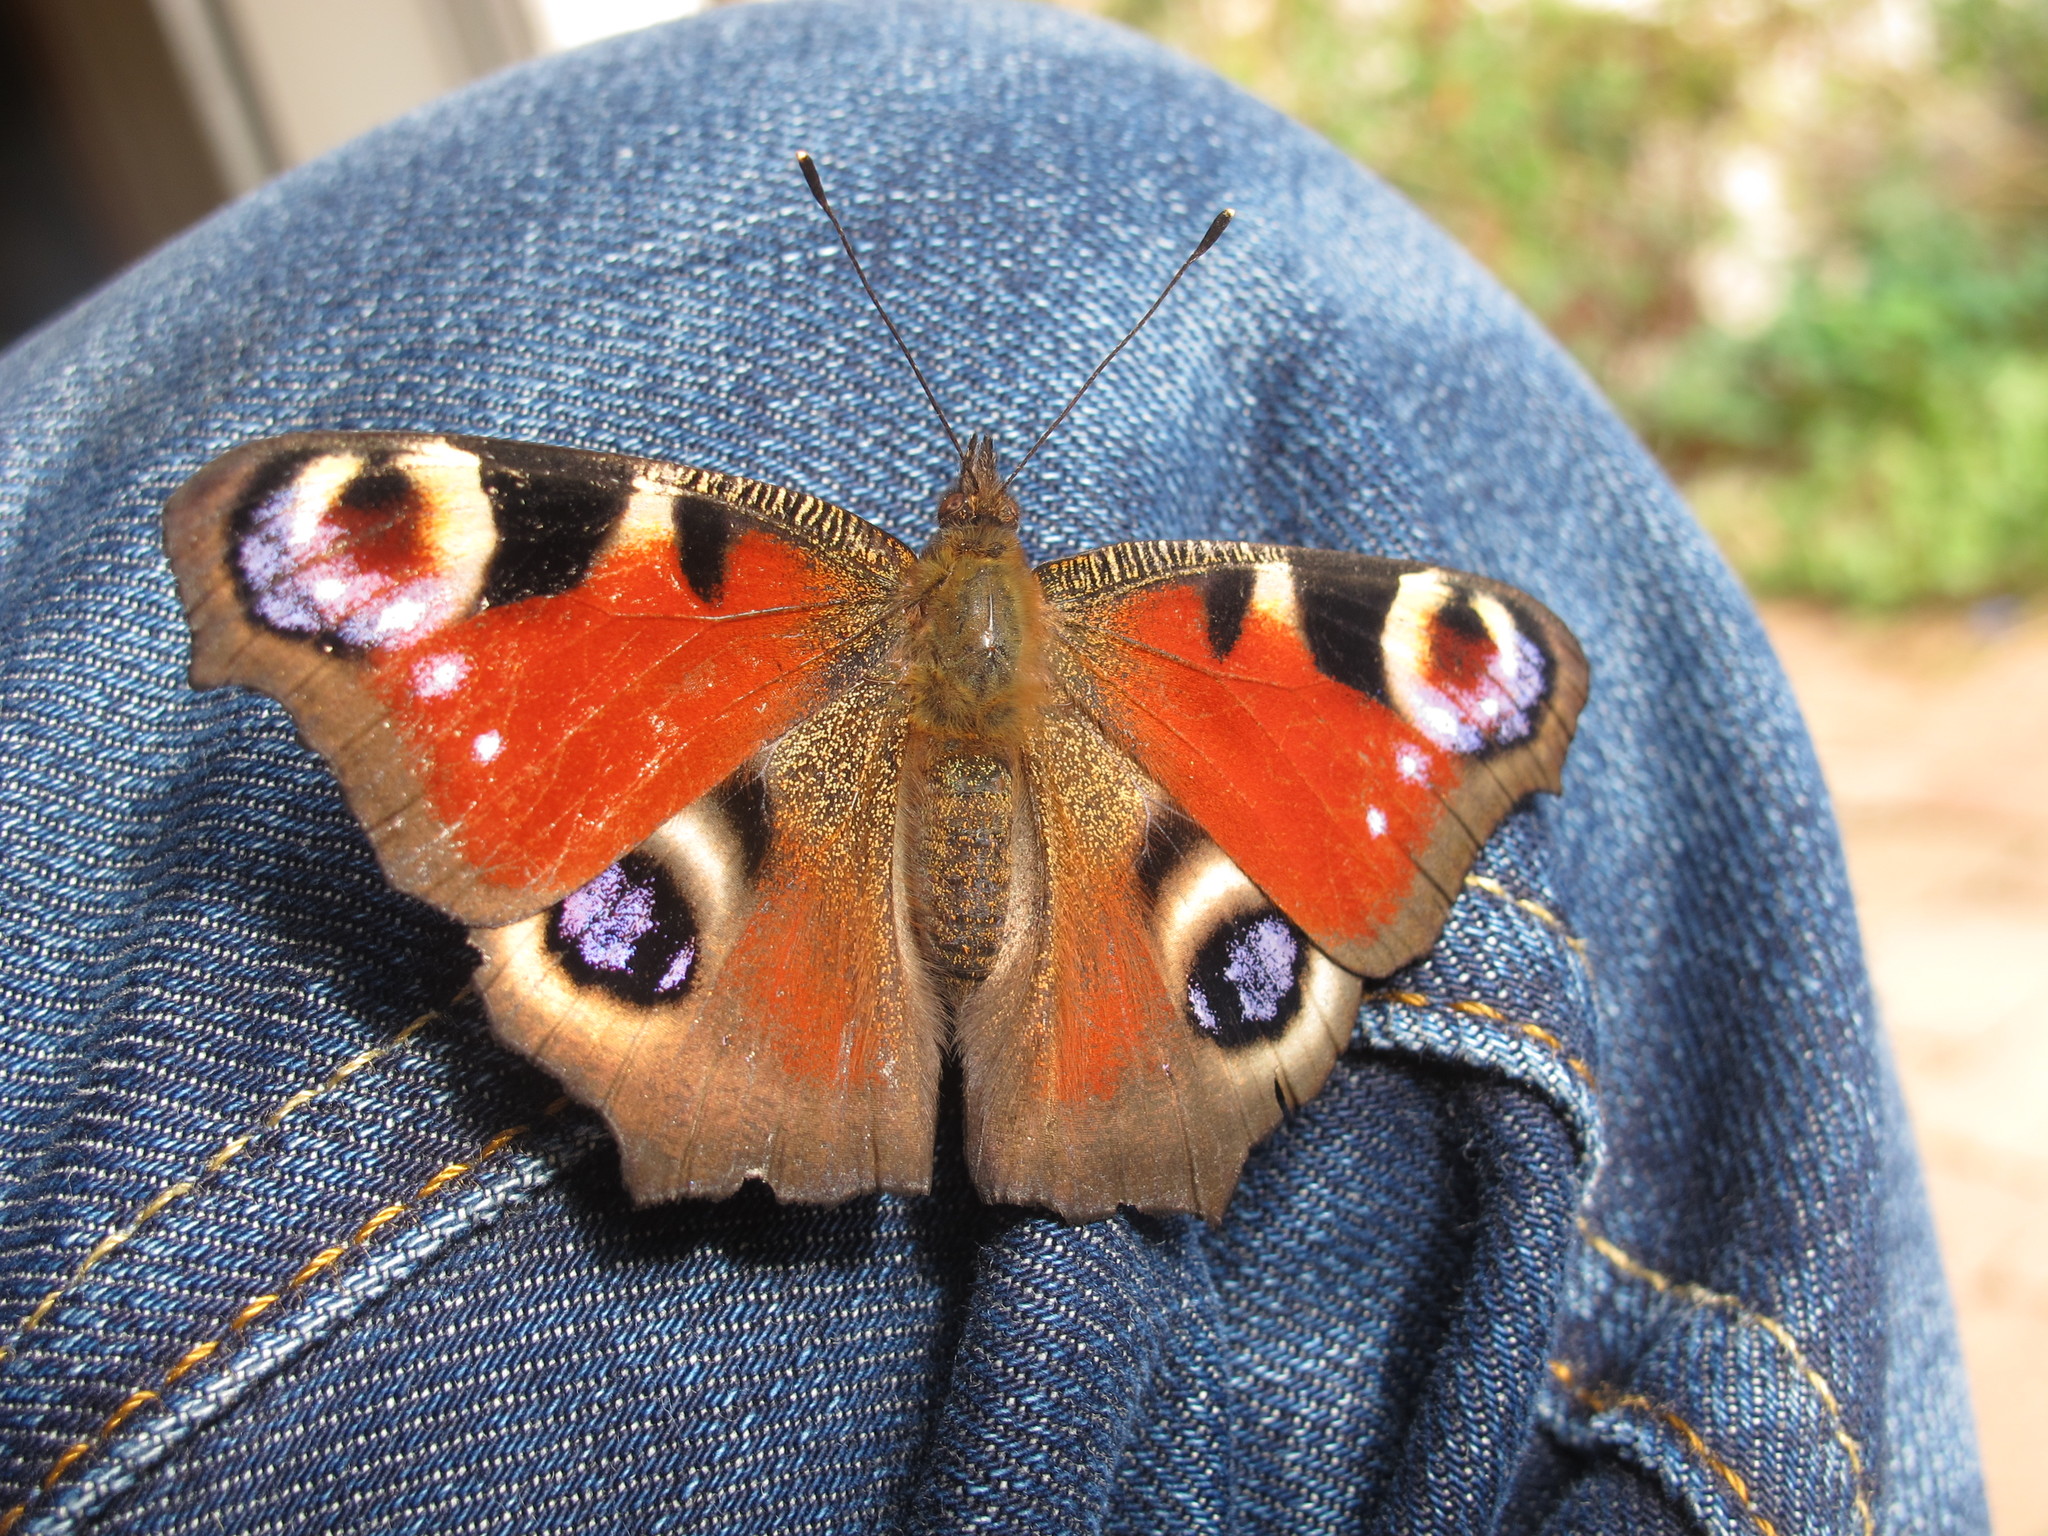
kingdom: Animalia
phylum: Arthropoda
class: Insecta
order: Lepidoptera
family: Nymphalidae
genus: Aglais
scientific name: Aglais io
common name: Peacock
